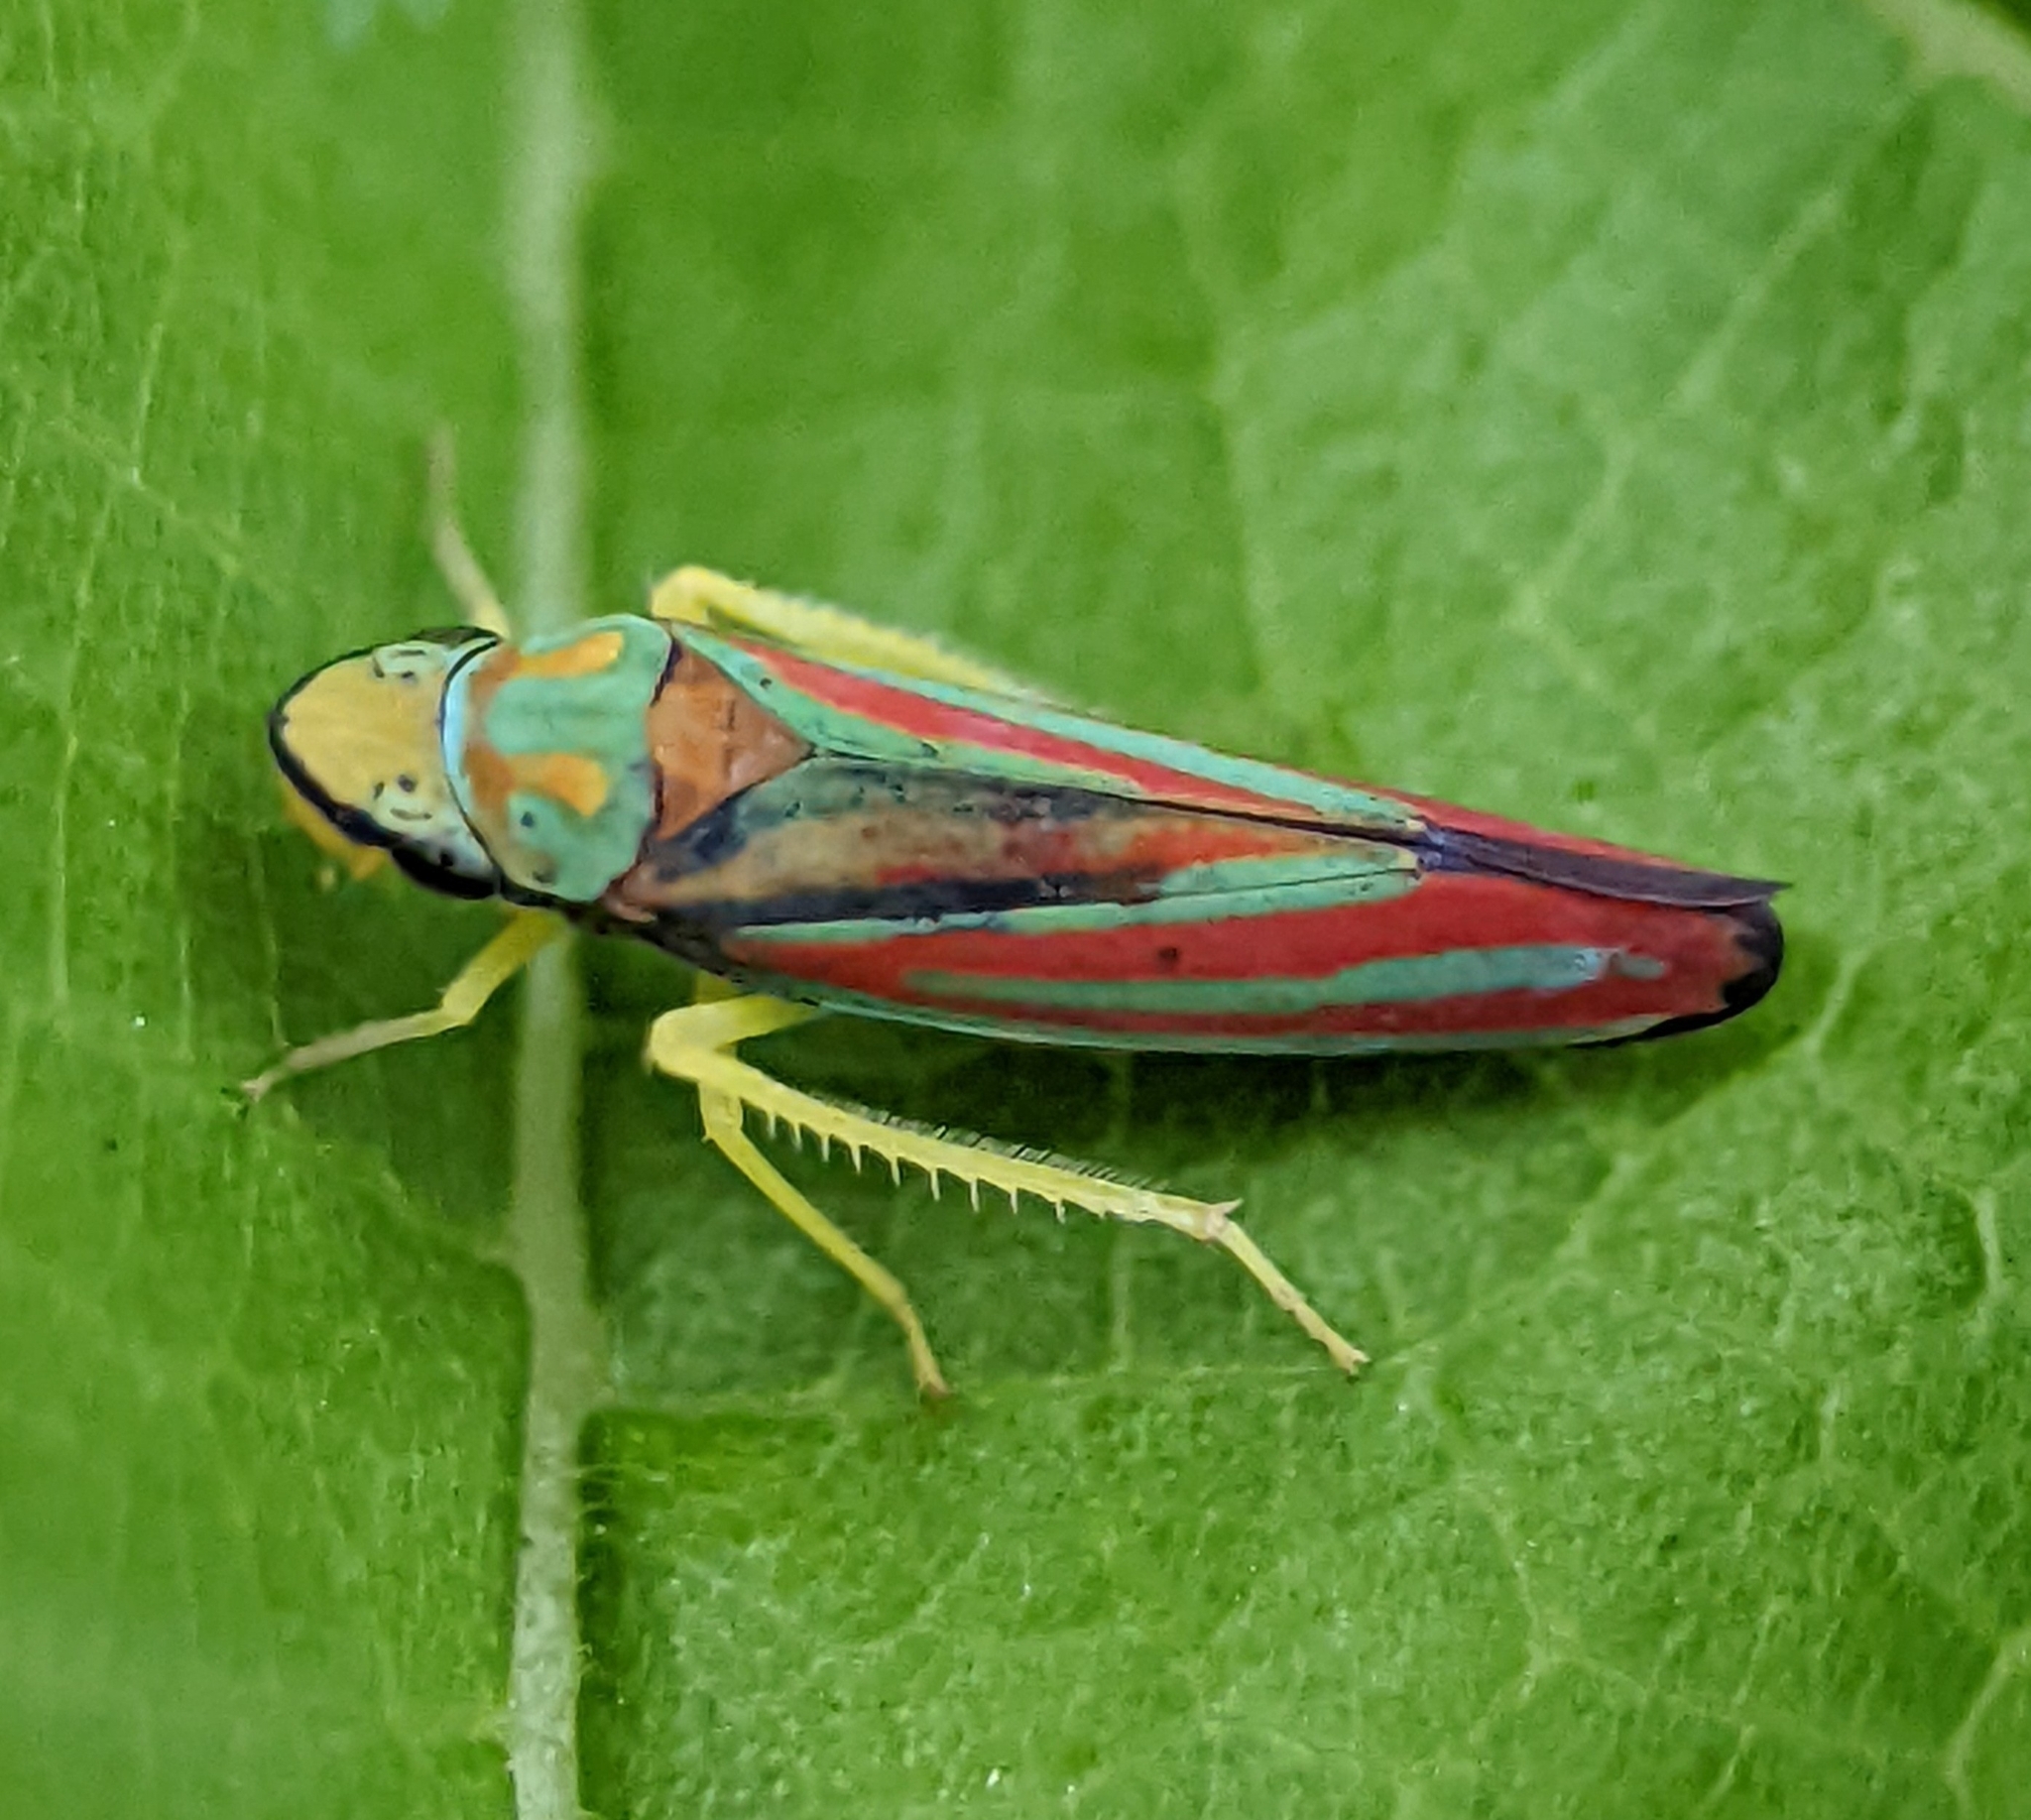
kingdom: Animalia
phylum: Arthropoda
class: Insecta
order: Hemiptera
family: Cicadellidae
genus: Graphocephala
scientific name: Graphocephala coccinea
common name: Candy-striped leafhopper
